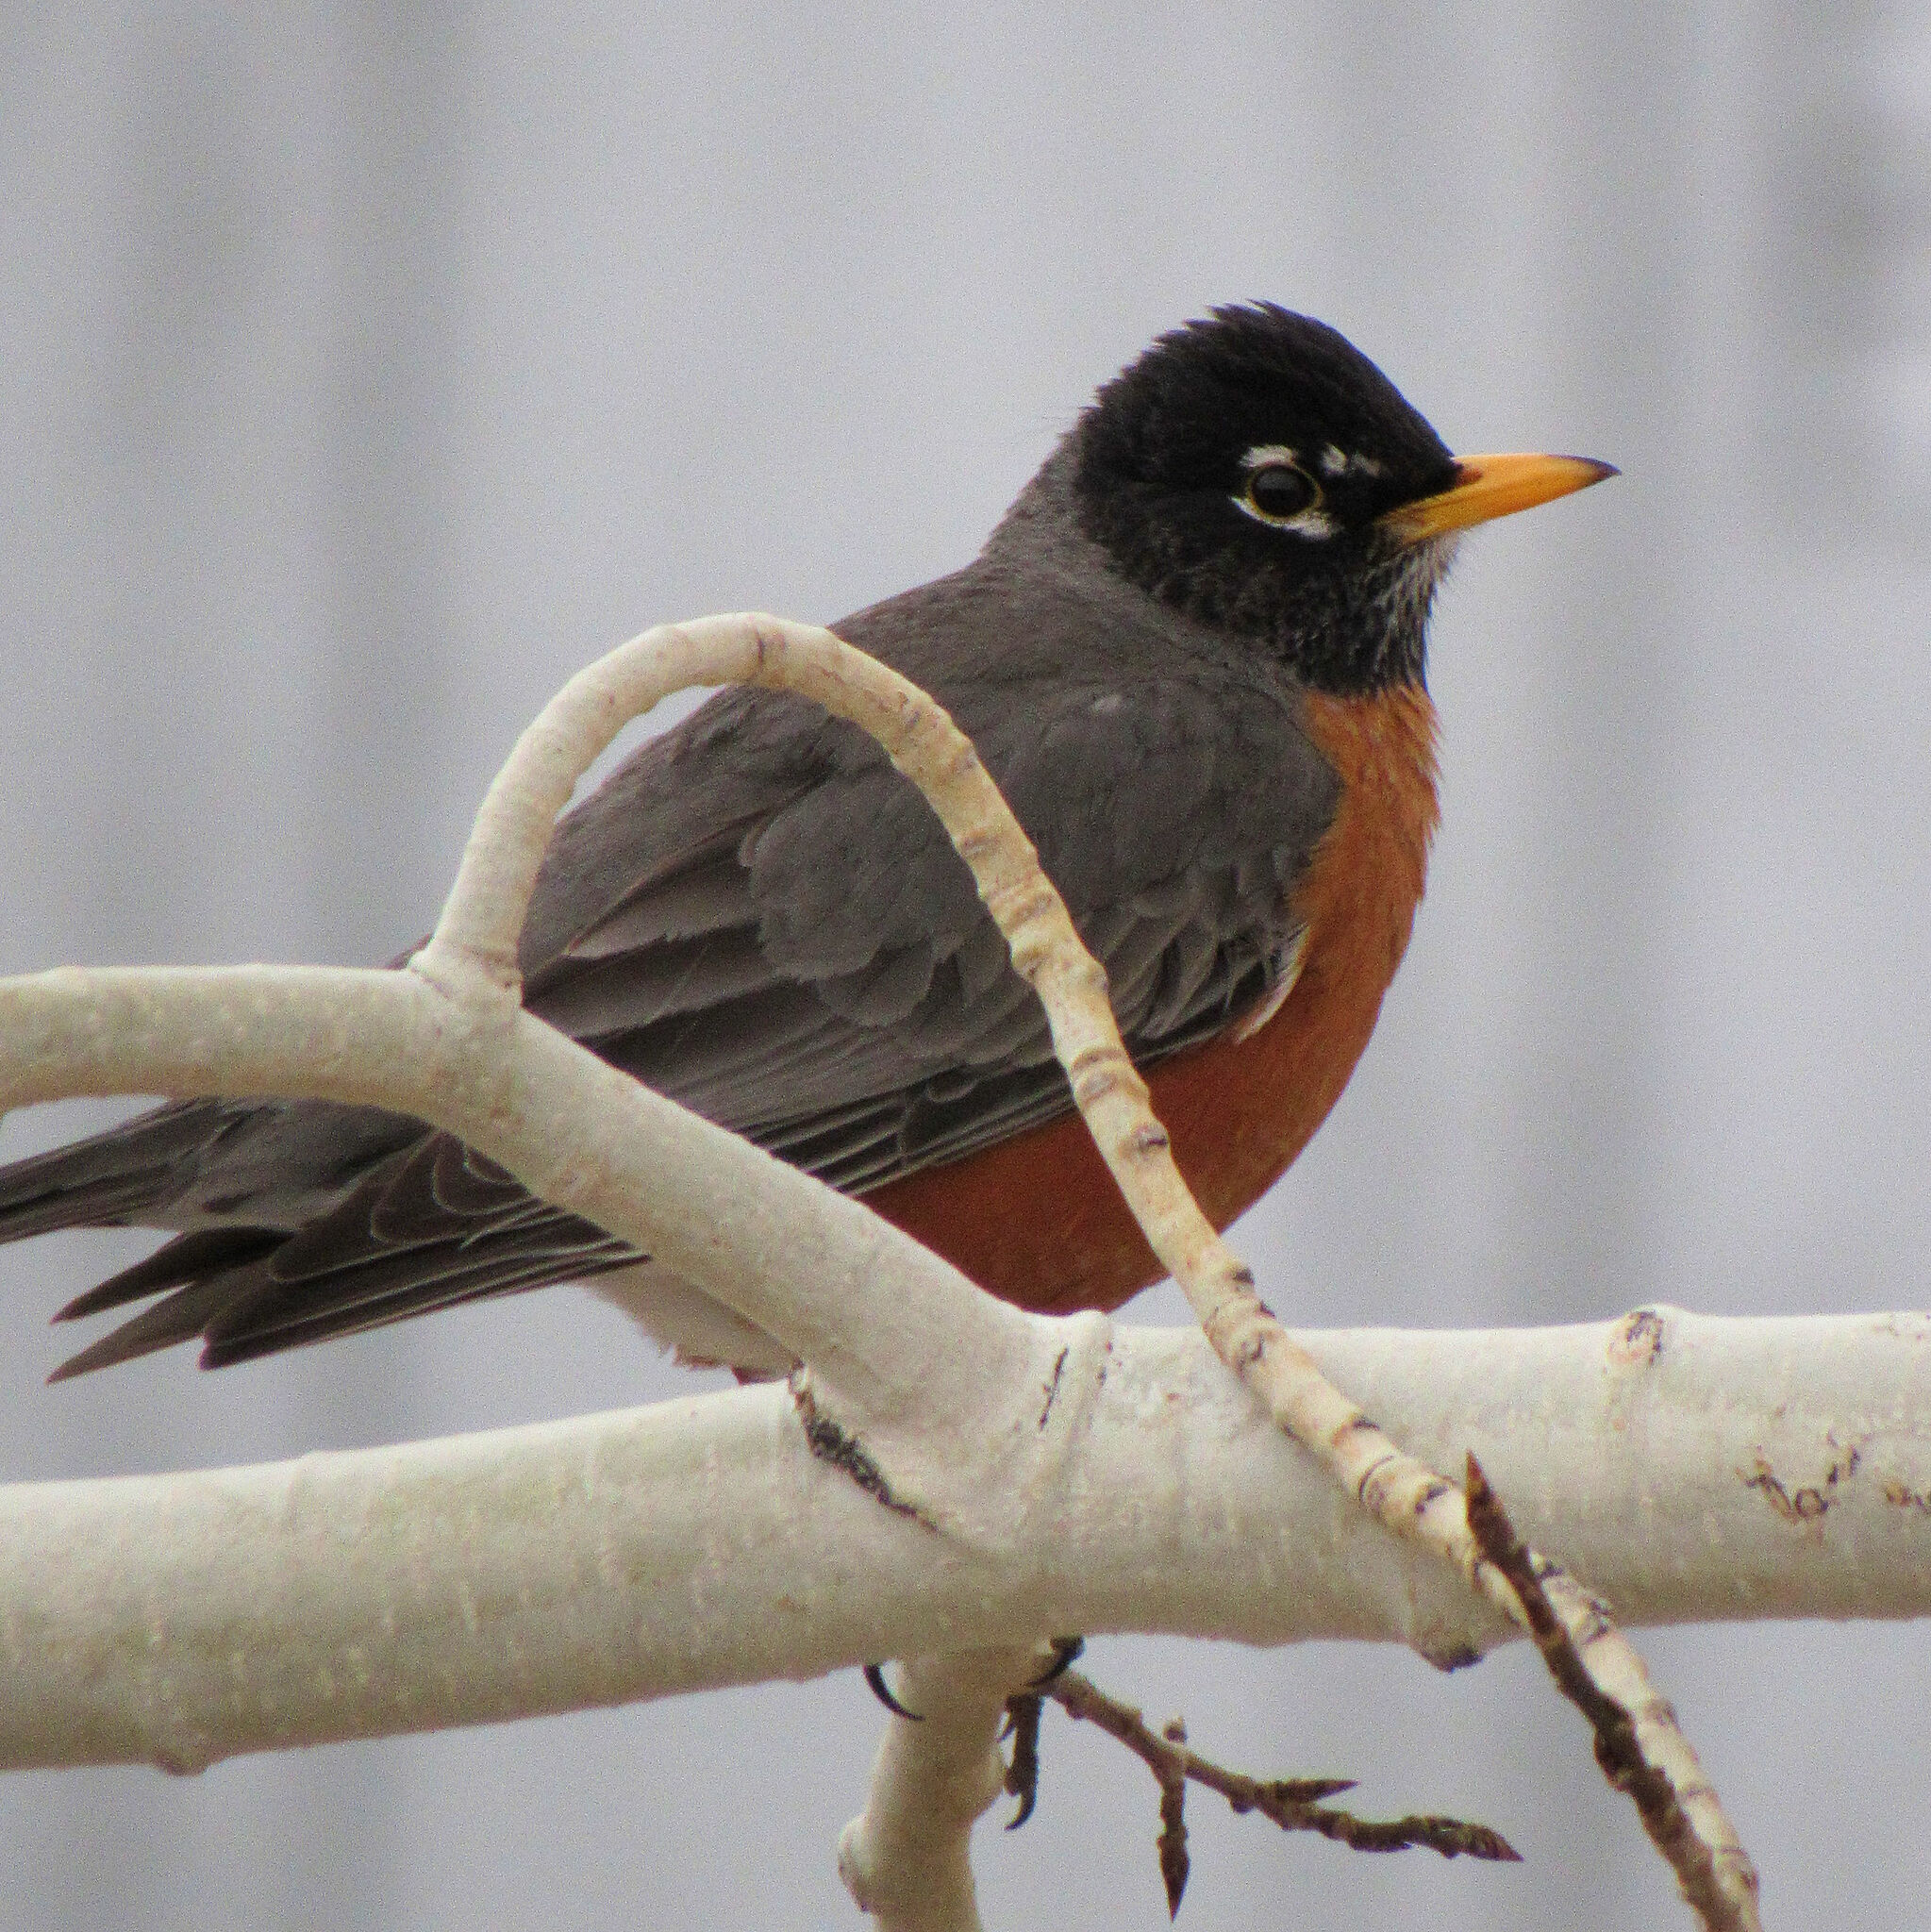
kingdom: Animalia
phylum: Chordata
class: Aves
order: Passeriformes
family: Turdidae
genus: Turdus
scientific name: Turdus migratorius
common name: American robin
